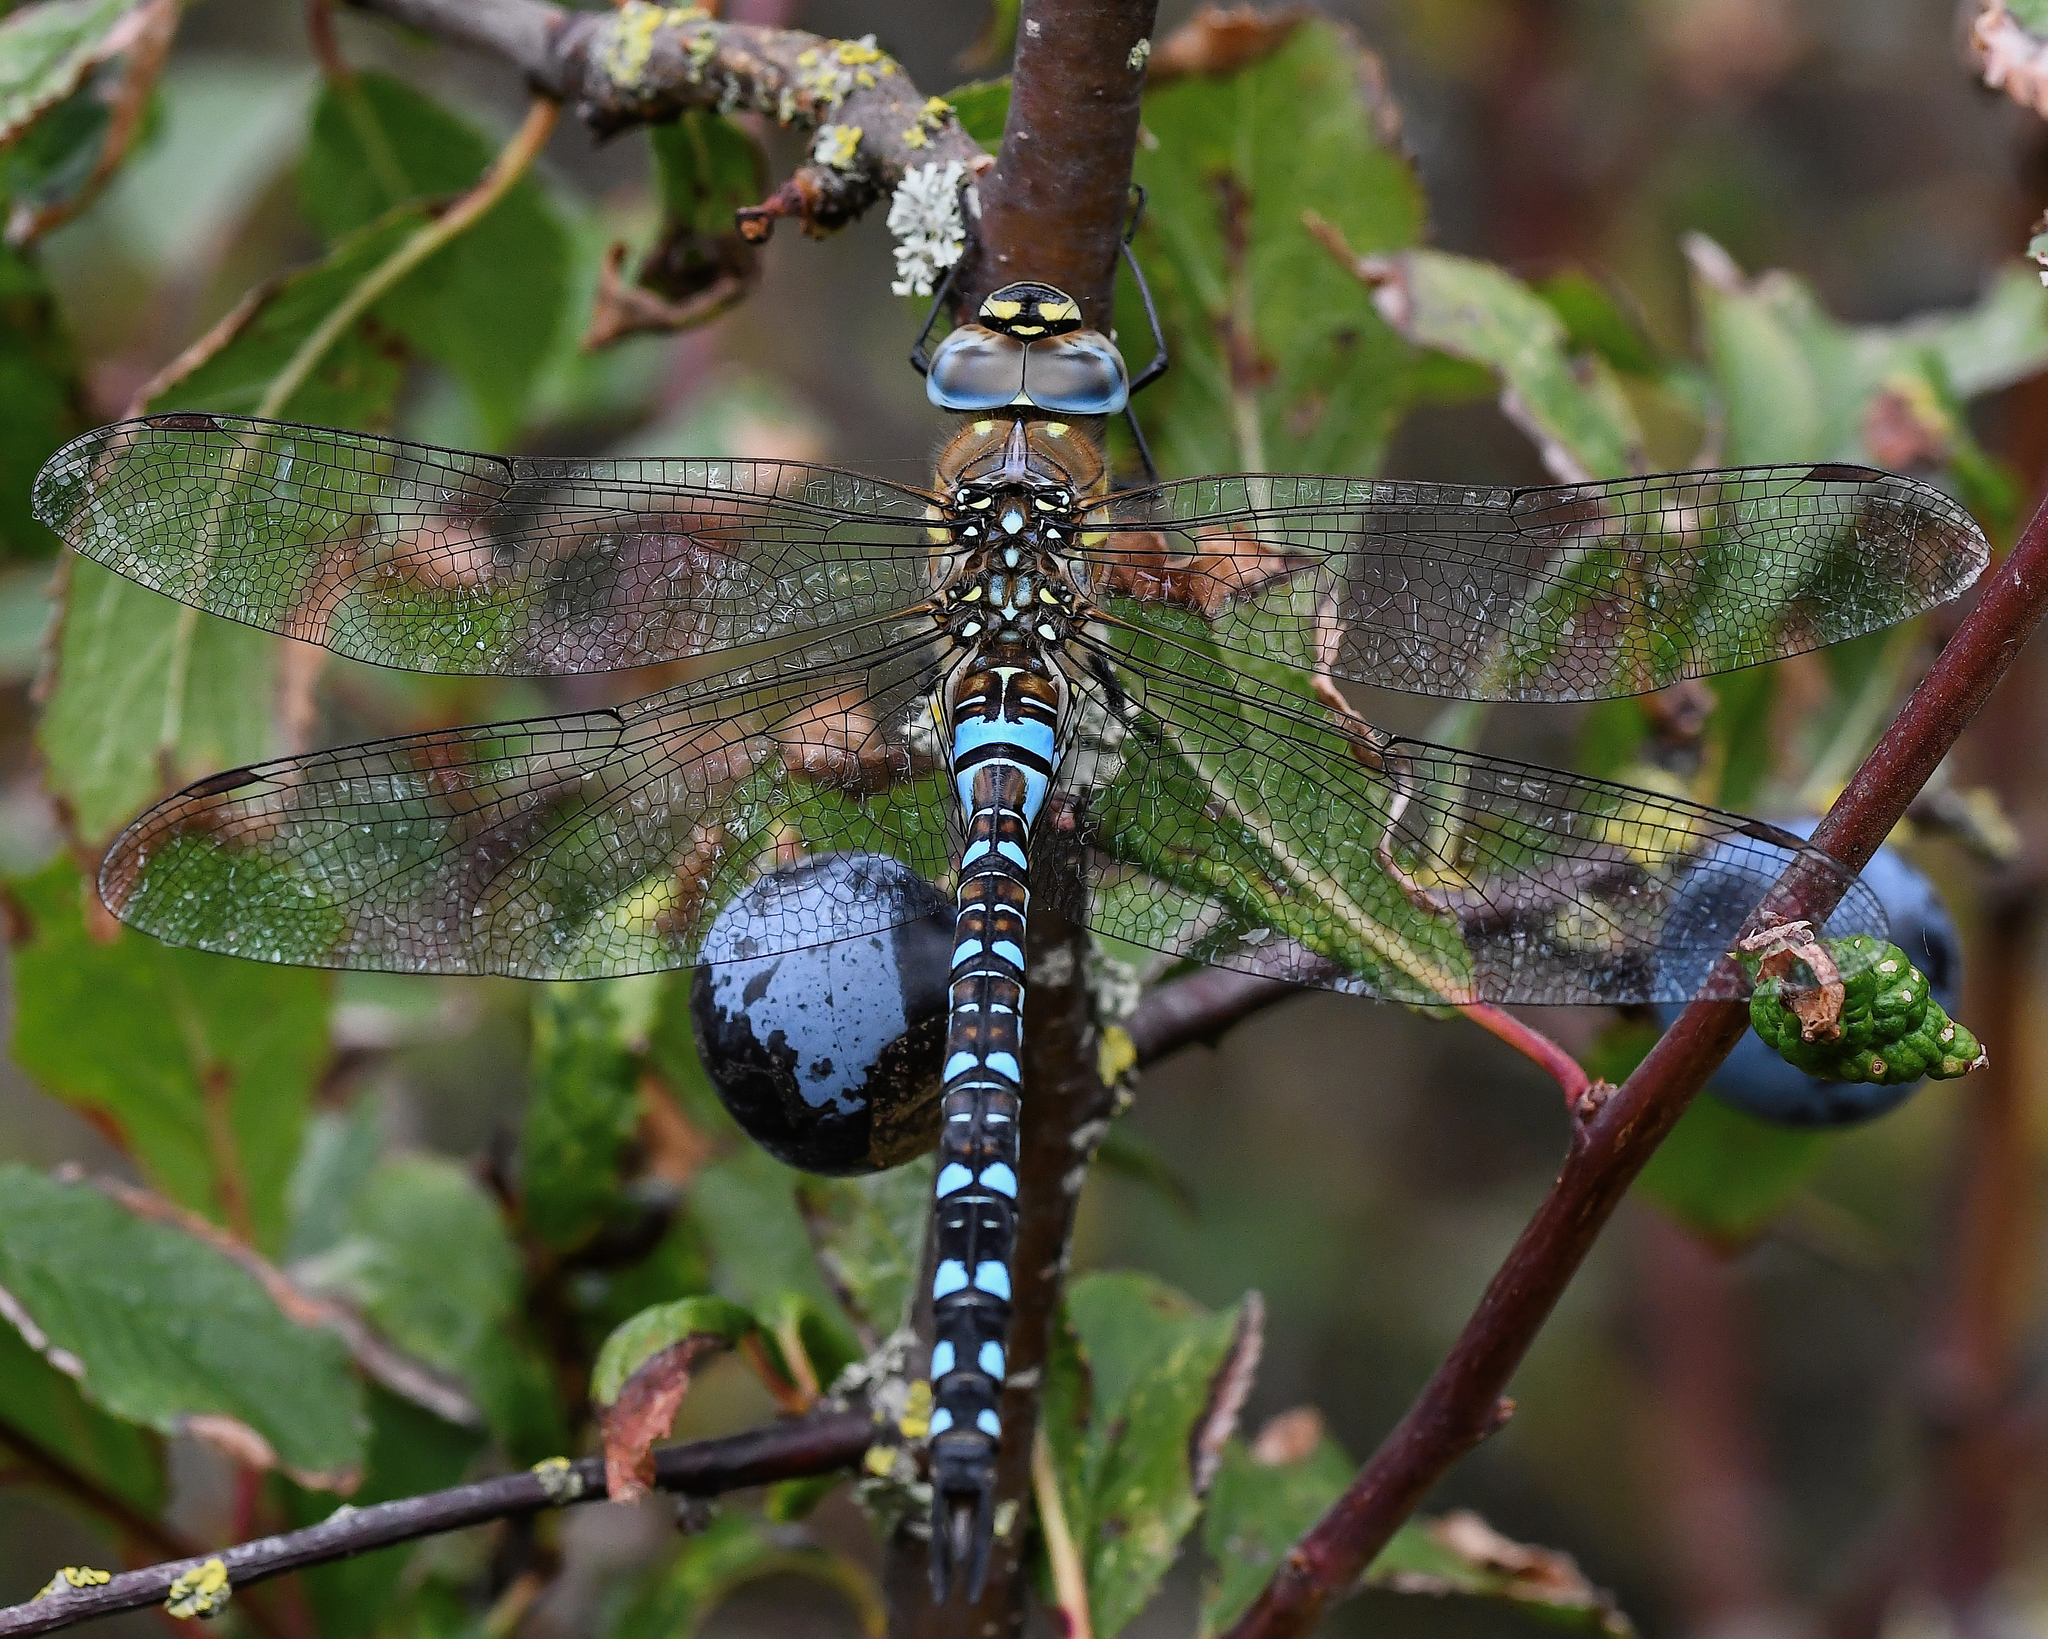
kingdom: Animalia
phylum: Arthropoda
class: Insecta
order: Odonata
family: Aeshnidae
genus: Aeshna
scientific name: Aeshna mixta
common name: Migrant hawker
